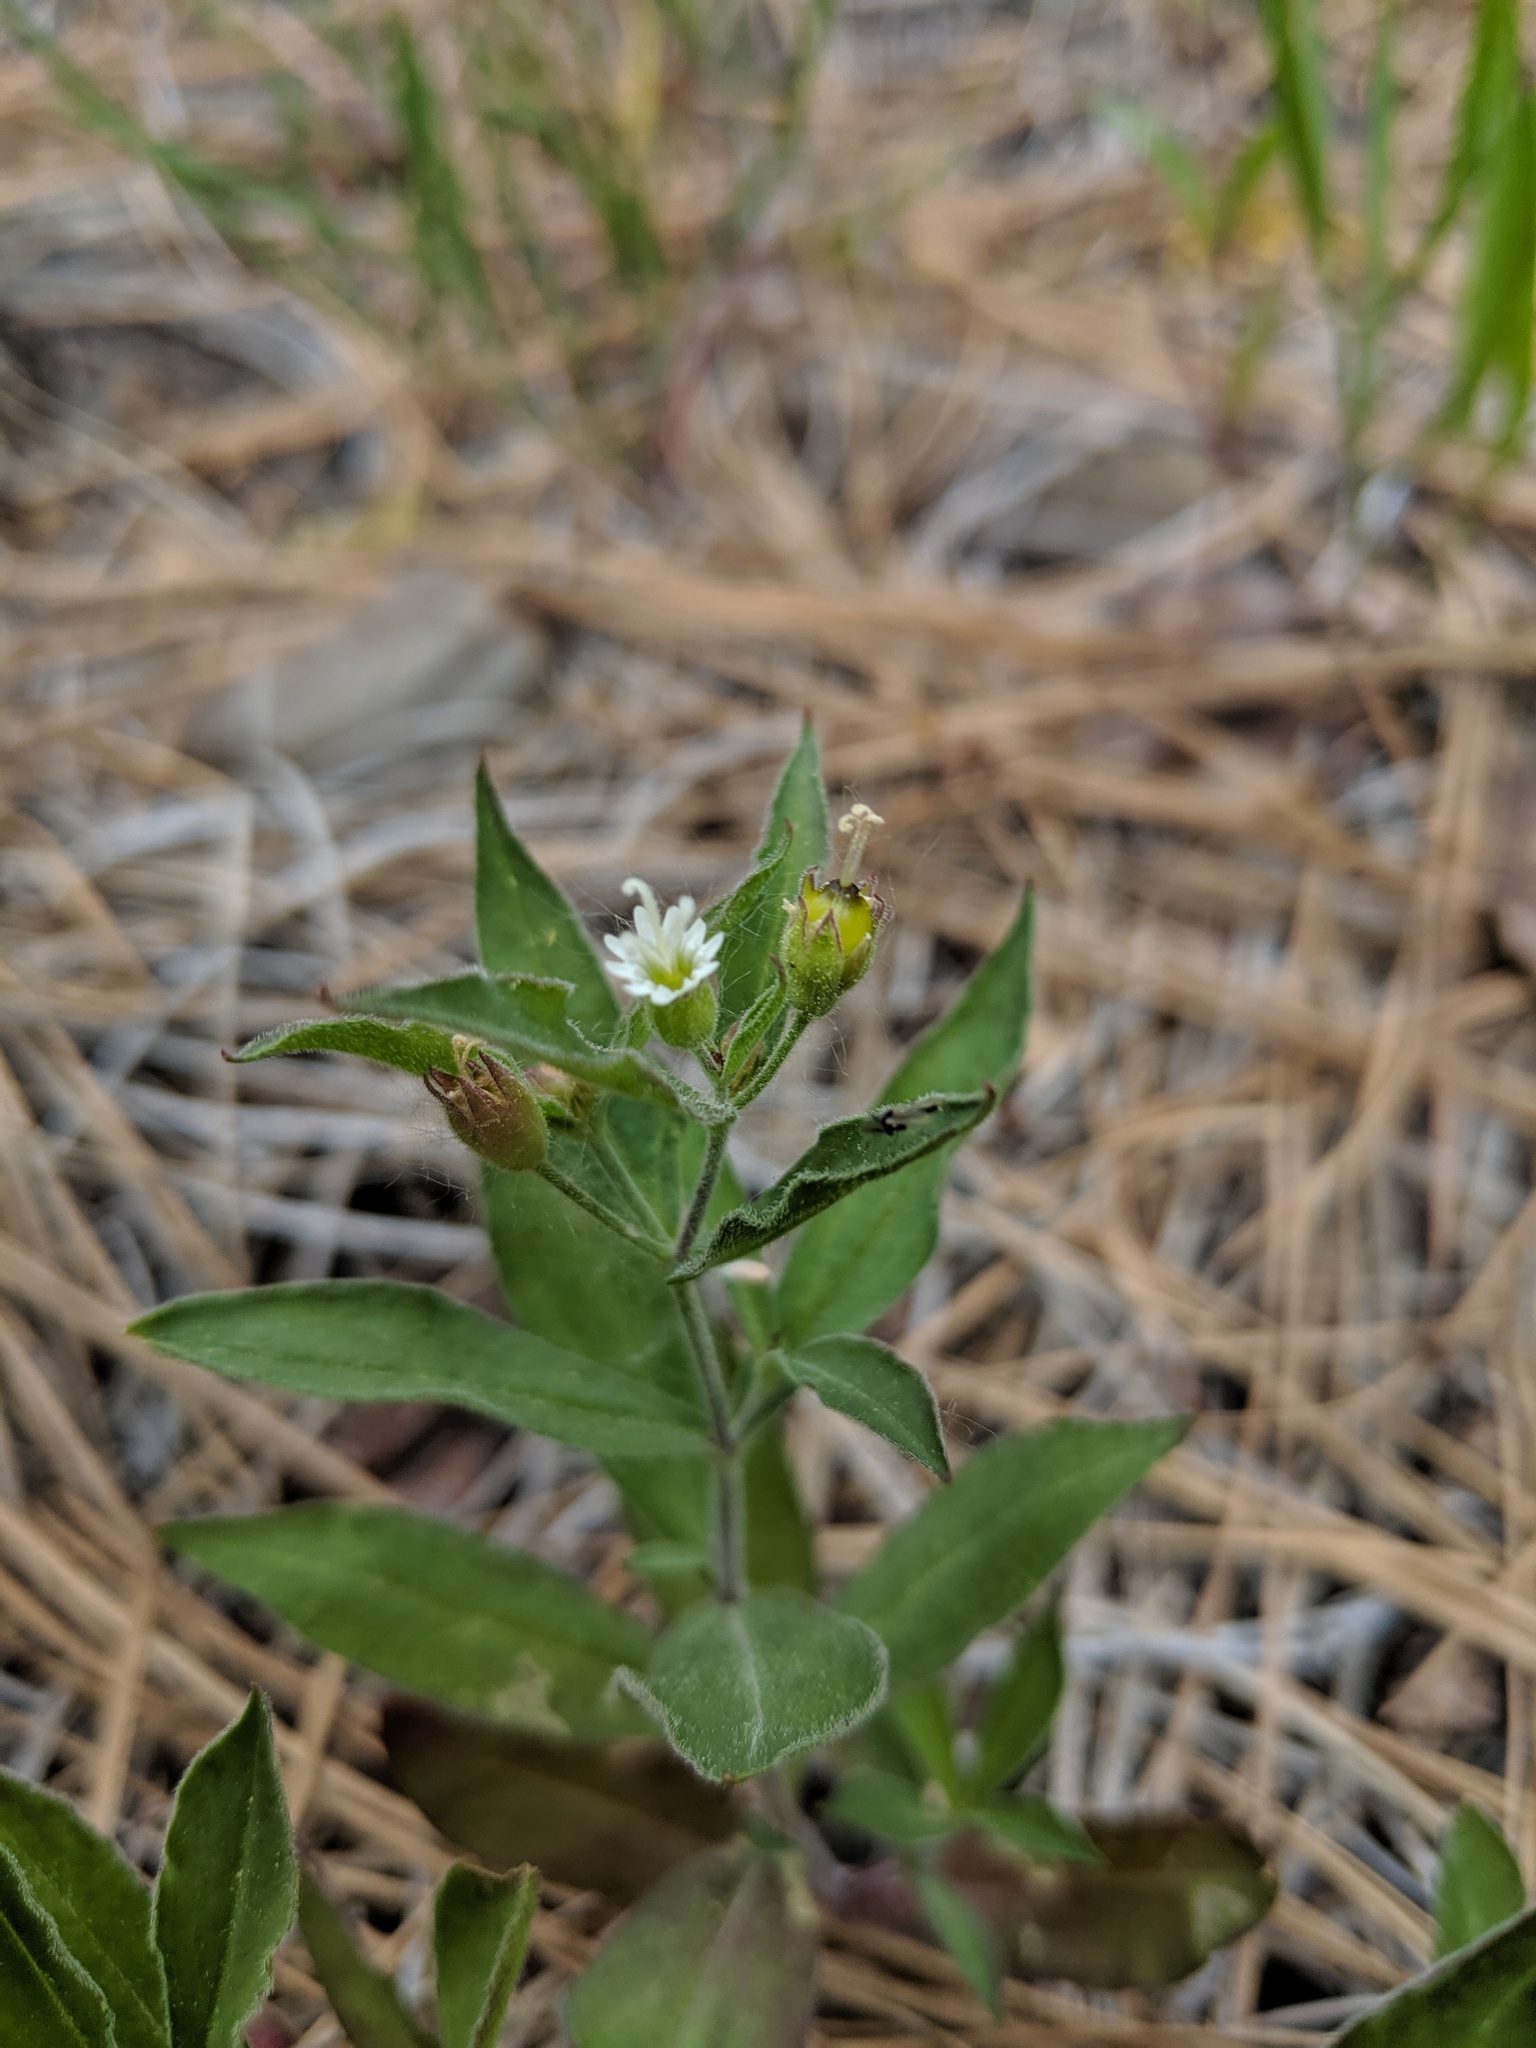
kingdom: Plantae
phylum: Tracheophyta
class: Magnoliopsida
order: Caryophyllales
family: Caryophyllaceae
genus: Silene
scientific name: Silene menziesii
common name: Menzies's catchfly
